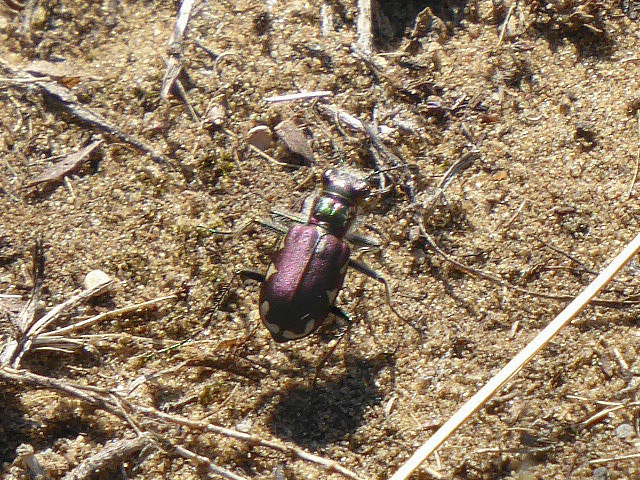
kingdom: Animalia
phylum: Arthropoda
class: Insecta
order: Coleoptera
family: Carabidae
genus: Cicindela
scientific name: Cicindela scutellaris
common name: Festive tiger beetle
